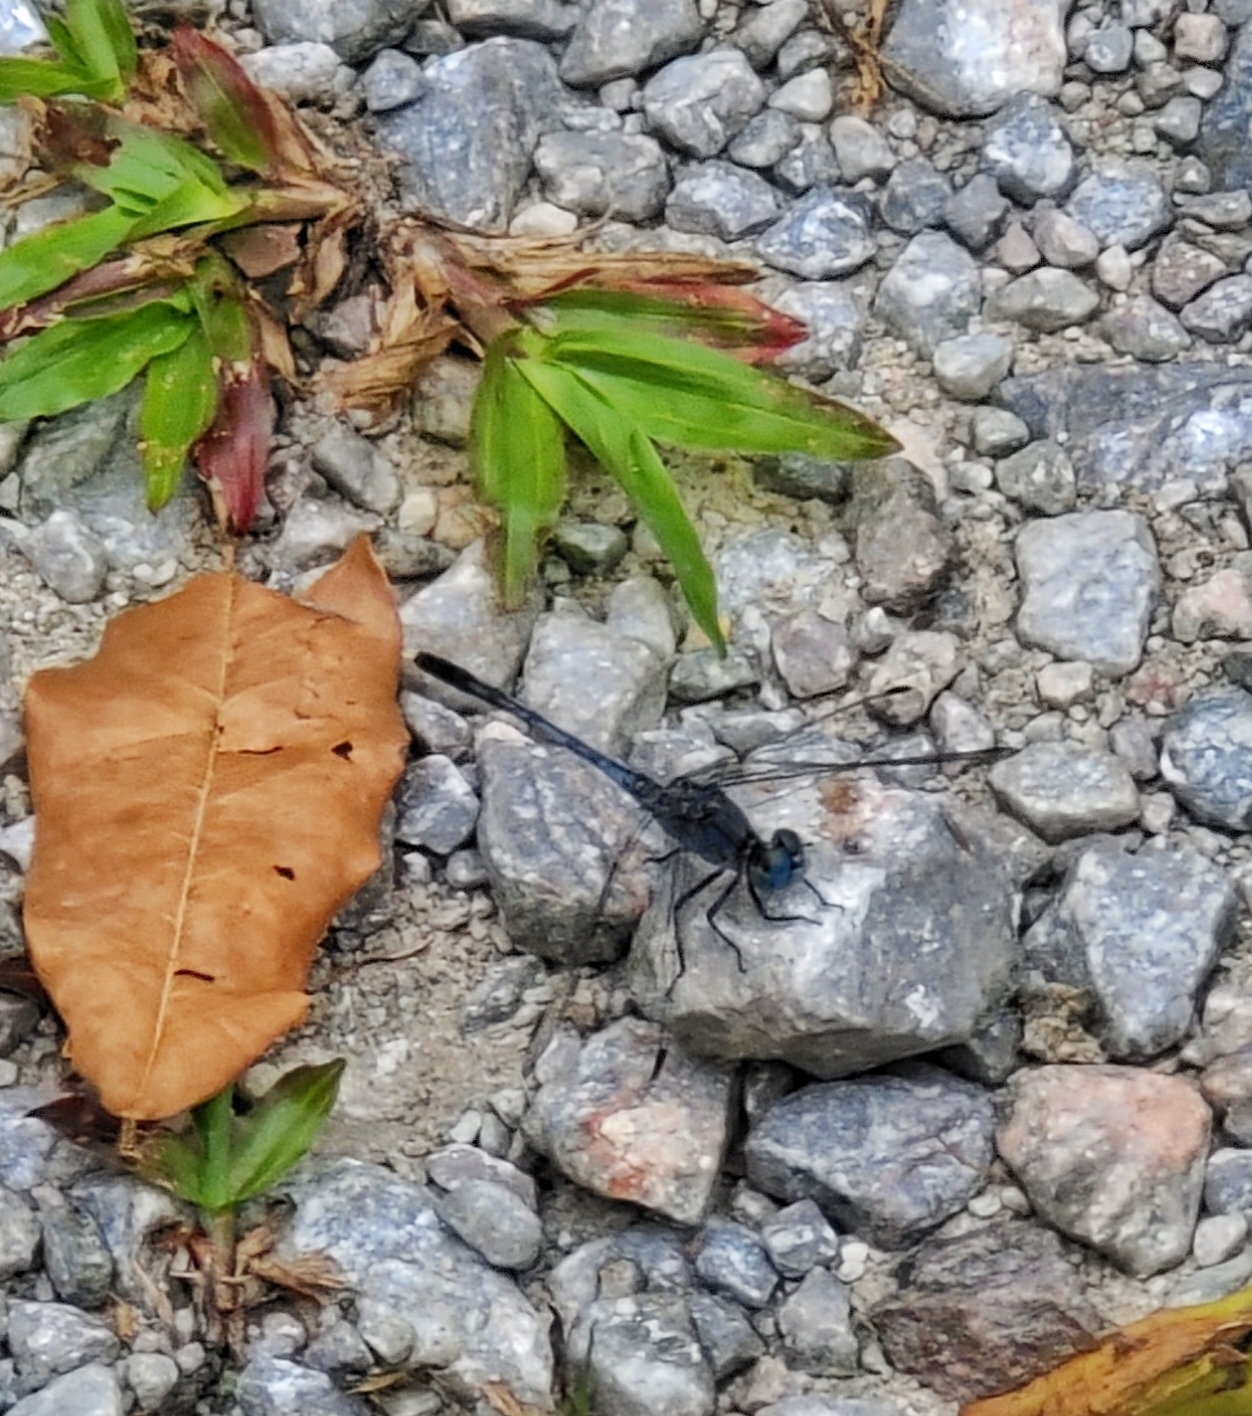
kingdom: Animalia
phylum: Arthropoda
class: Insecta
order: Odonata
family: Libellulidae
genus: Diplacodes
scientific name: Diplacodes trivialis
